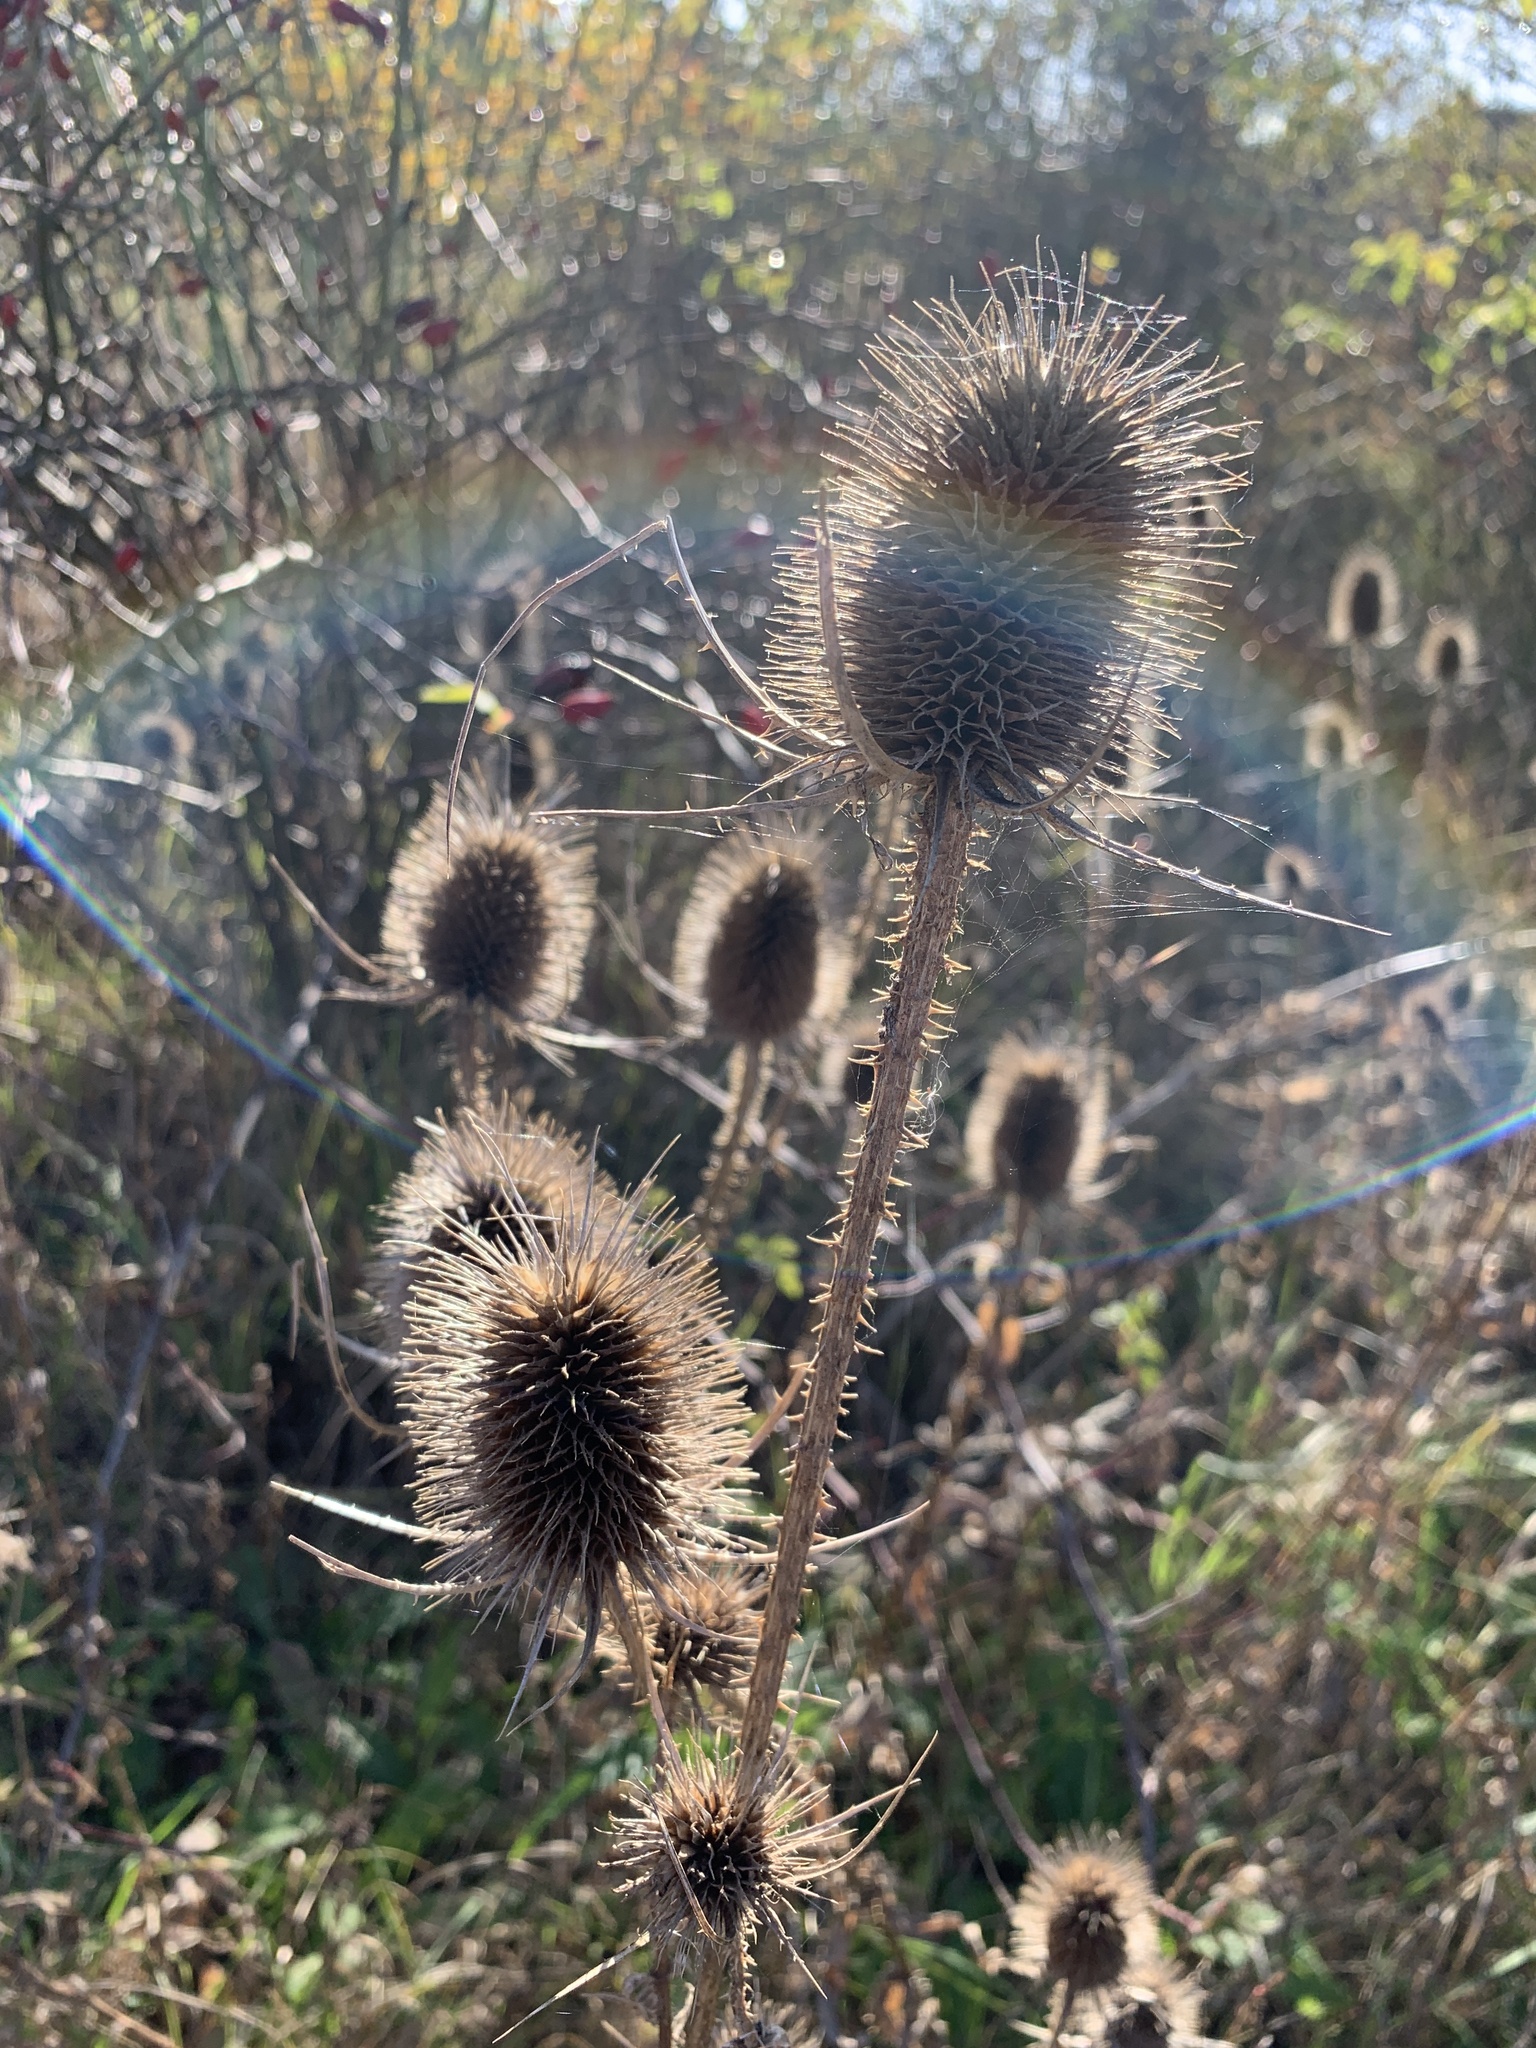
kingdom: Plantae
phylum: Tracheophyta
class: Magnoliopsida
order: Dipsacales
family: Caprifoliaceae
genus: Dipsacus
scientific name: Dipsacus fullonum
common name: Teasel
